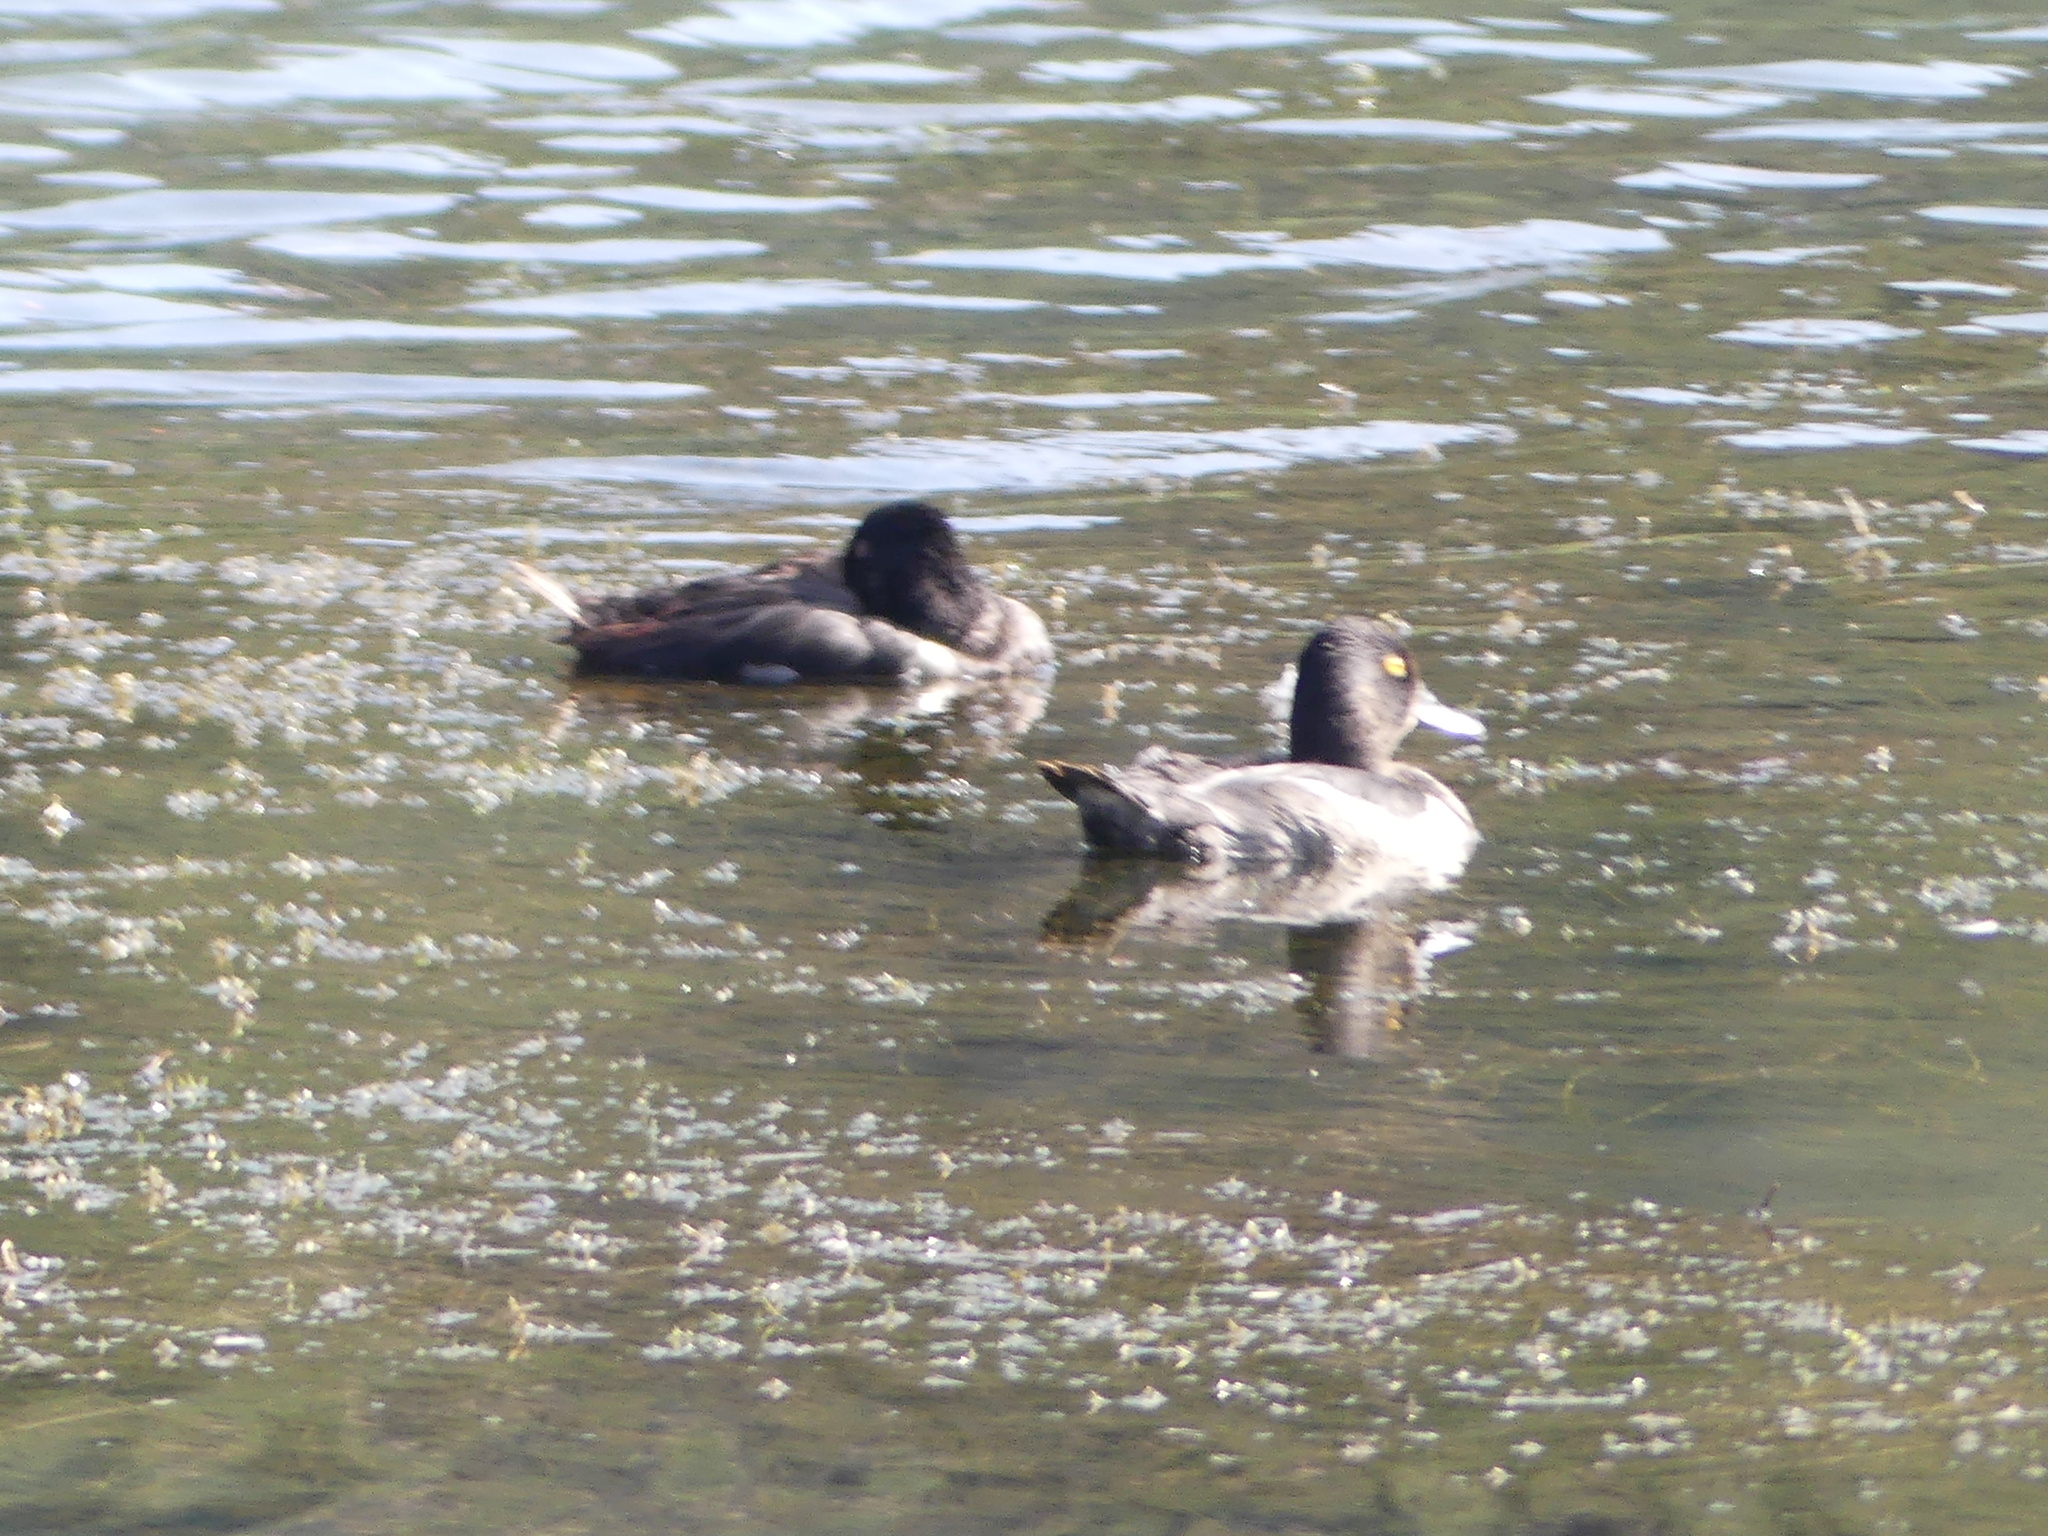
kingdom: Animalia
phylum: Chordata
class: Aves
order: Anseriformes
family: Anatidae
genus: Aythya
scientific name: Aythya collaris
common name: Ring-necked duck
